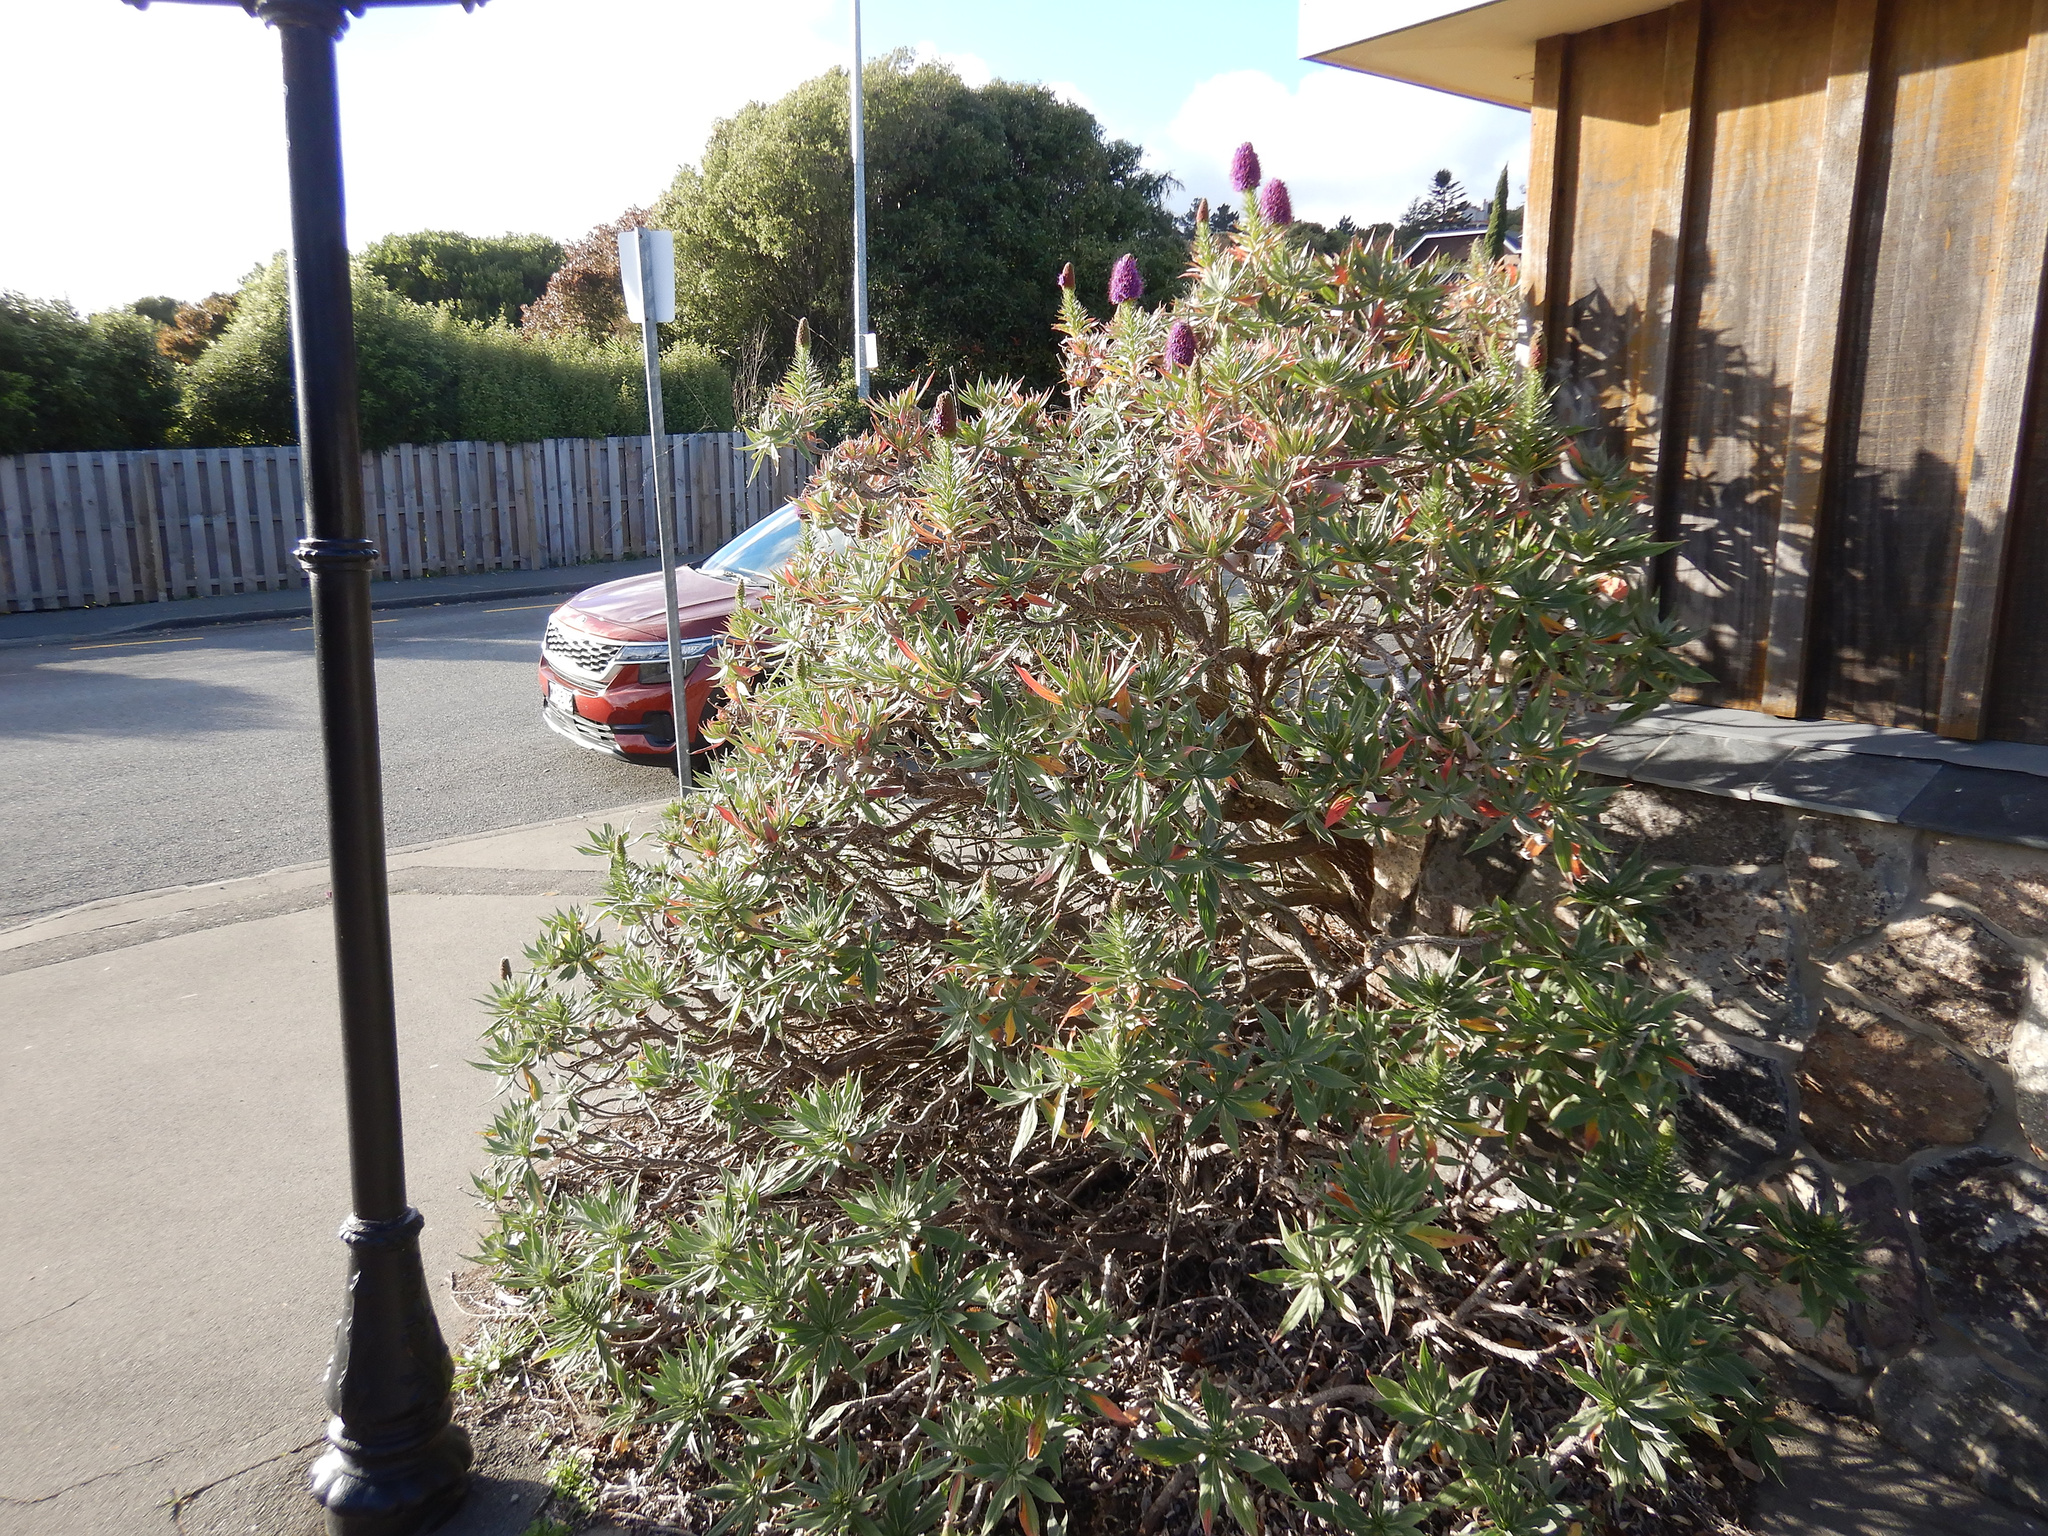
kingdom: Plantae
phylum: Tracheophyta
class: Magnoliopsida
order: Boraginales
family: Boraginaceae
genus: Echium
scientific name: Echium candicans
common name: Pride of madeira
